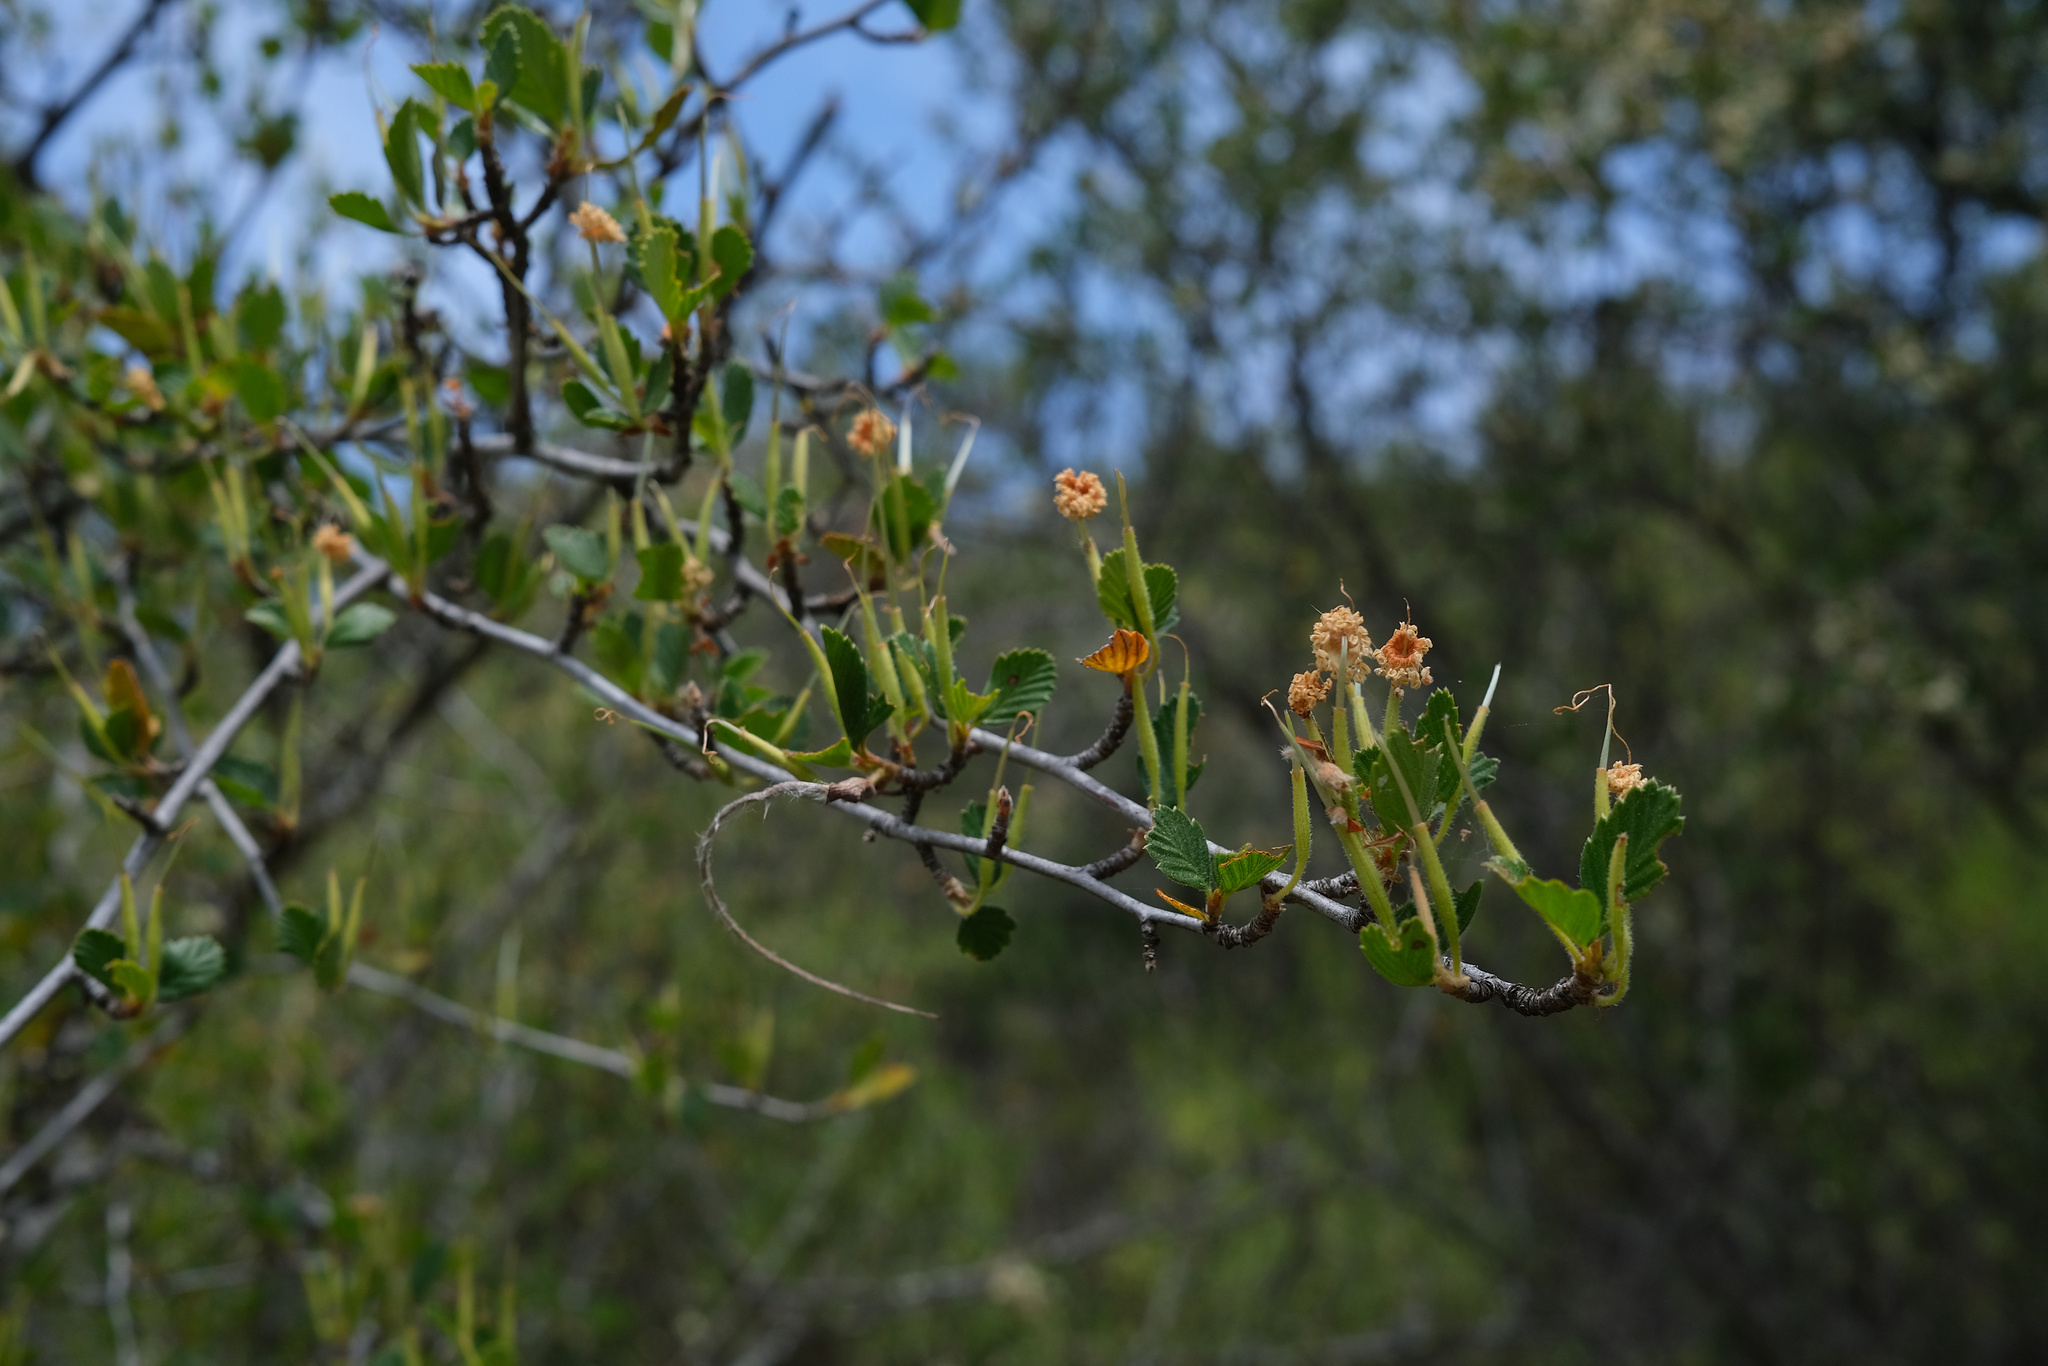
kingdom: Plantae
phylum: Tracheophyta
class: Magnoliopsida
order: Rosales
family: Rosaceae
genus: Cercocarpus
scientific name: Cercocarpus betuloides
